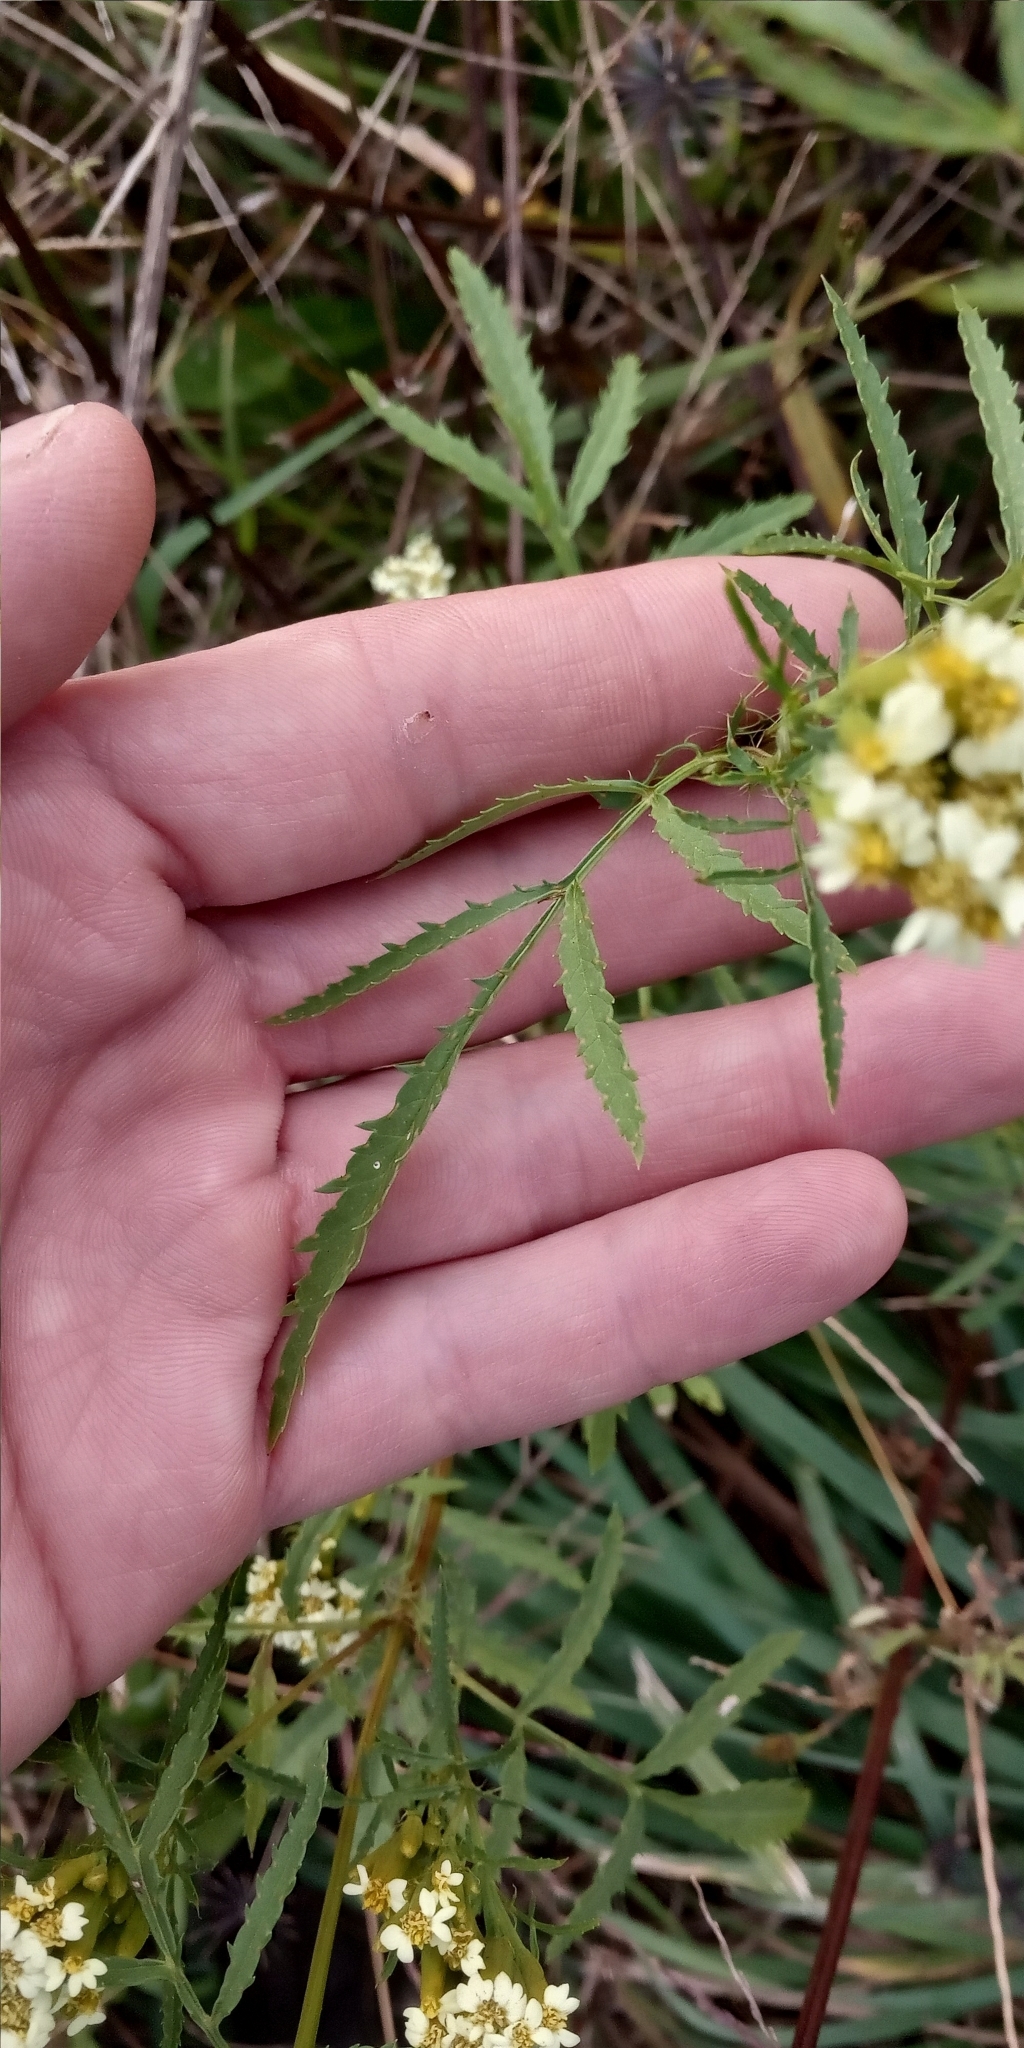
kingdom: Plantae
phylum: Tracheophyta
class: Magnoliopsida
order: Asterales
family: Asteraceae
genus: Tagetes
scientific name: Tagetes minuta
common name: Muster john henry
